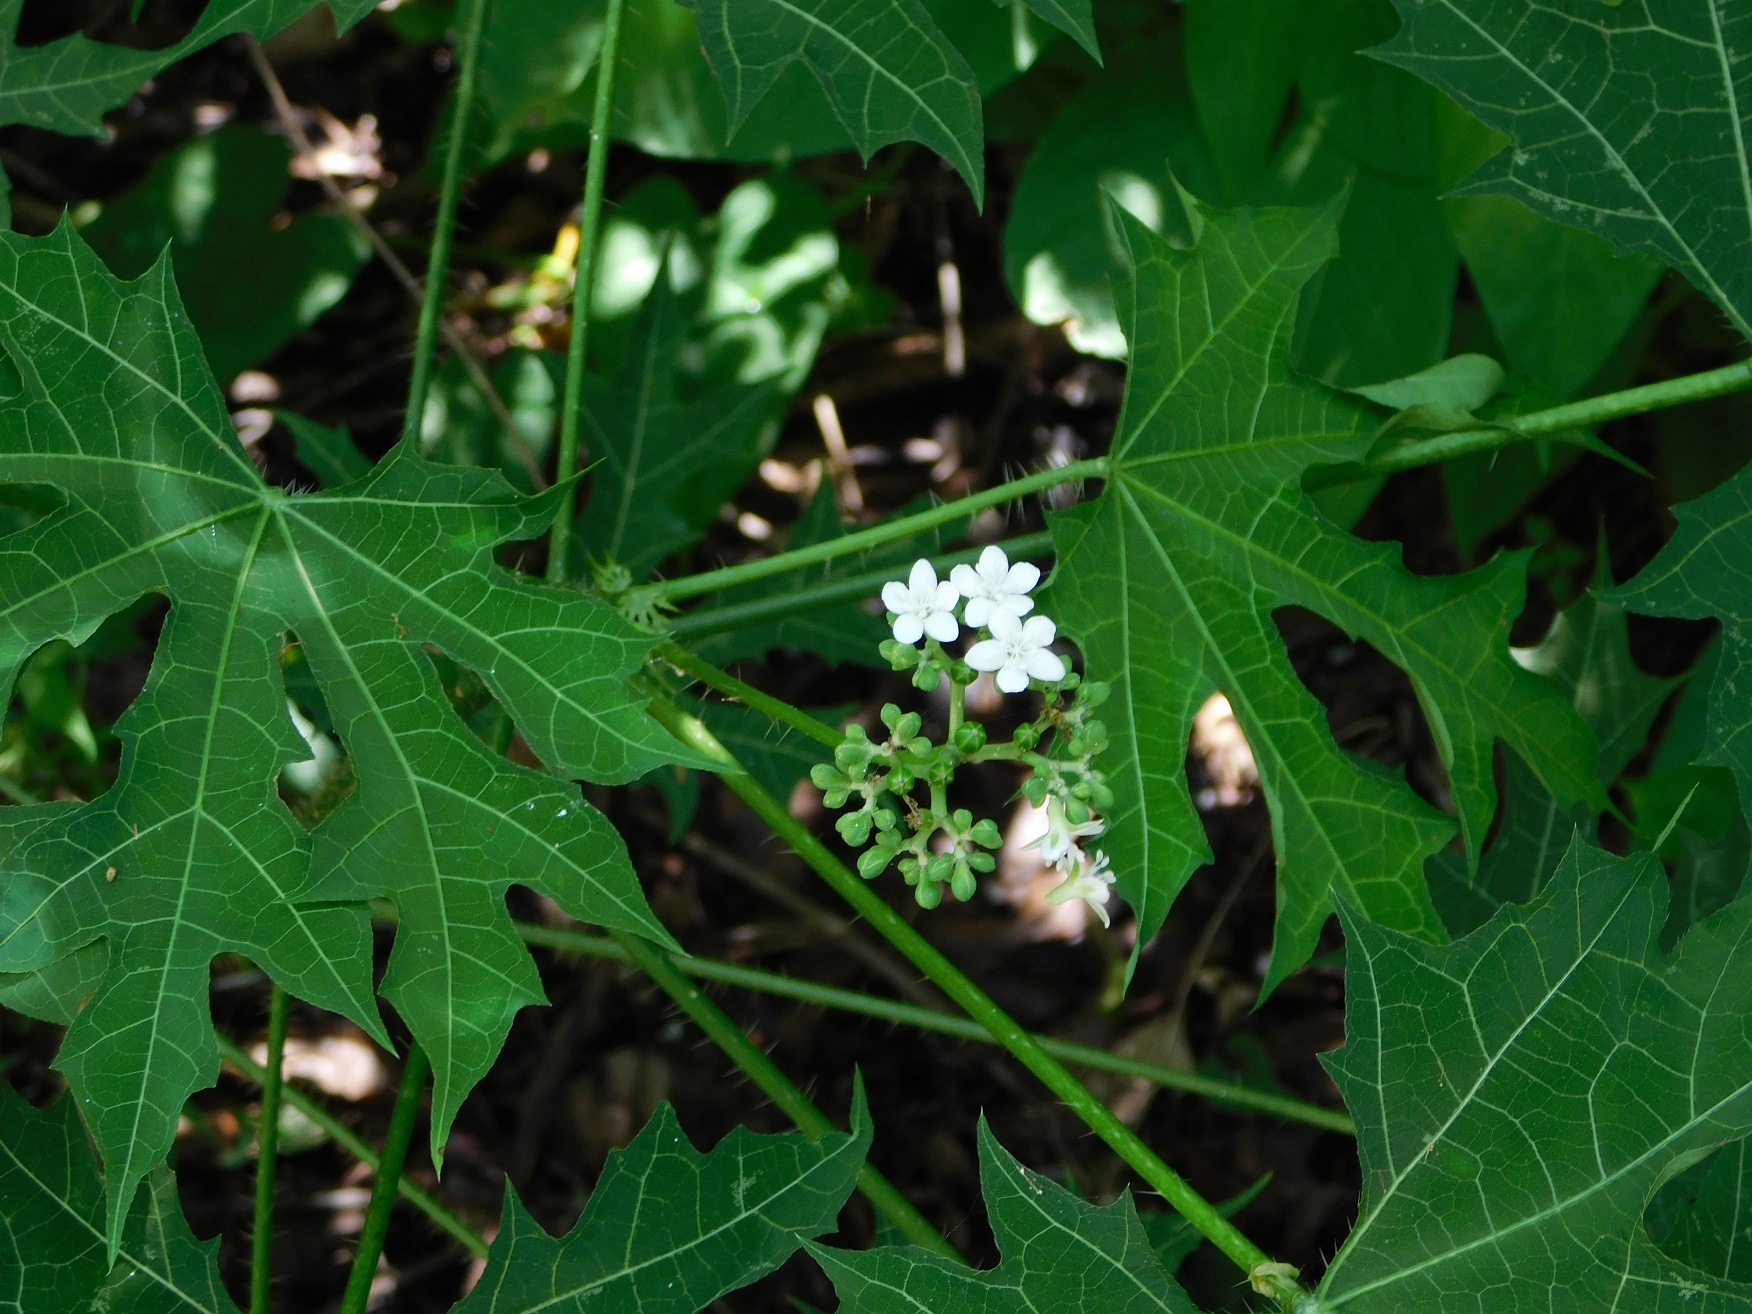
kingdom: Plantae
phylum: Tracheophyta
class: Magnoliopsida
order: Malpighiales
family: Euphorbiaceae
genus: Cnidoscolus
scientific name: Cnidoscolus aconitifolius
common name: Cabbage-star
